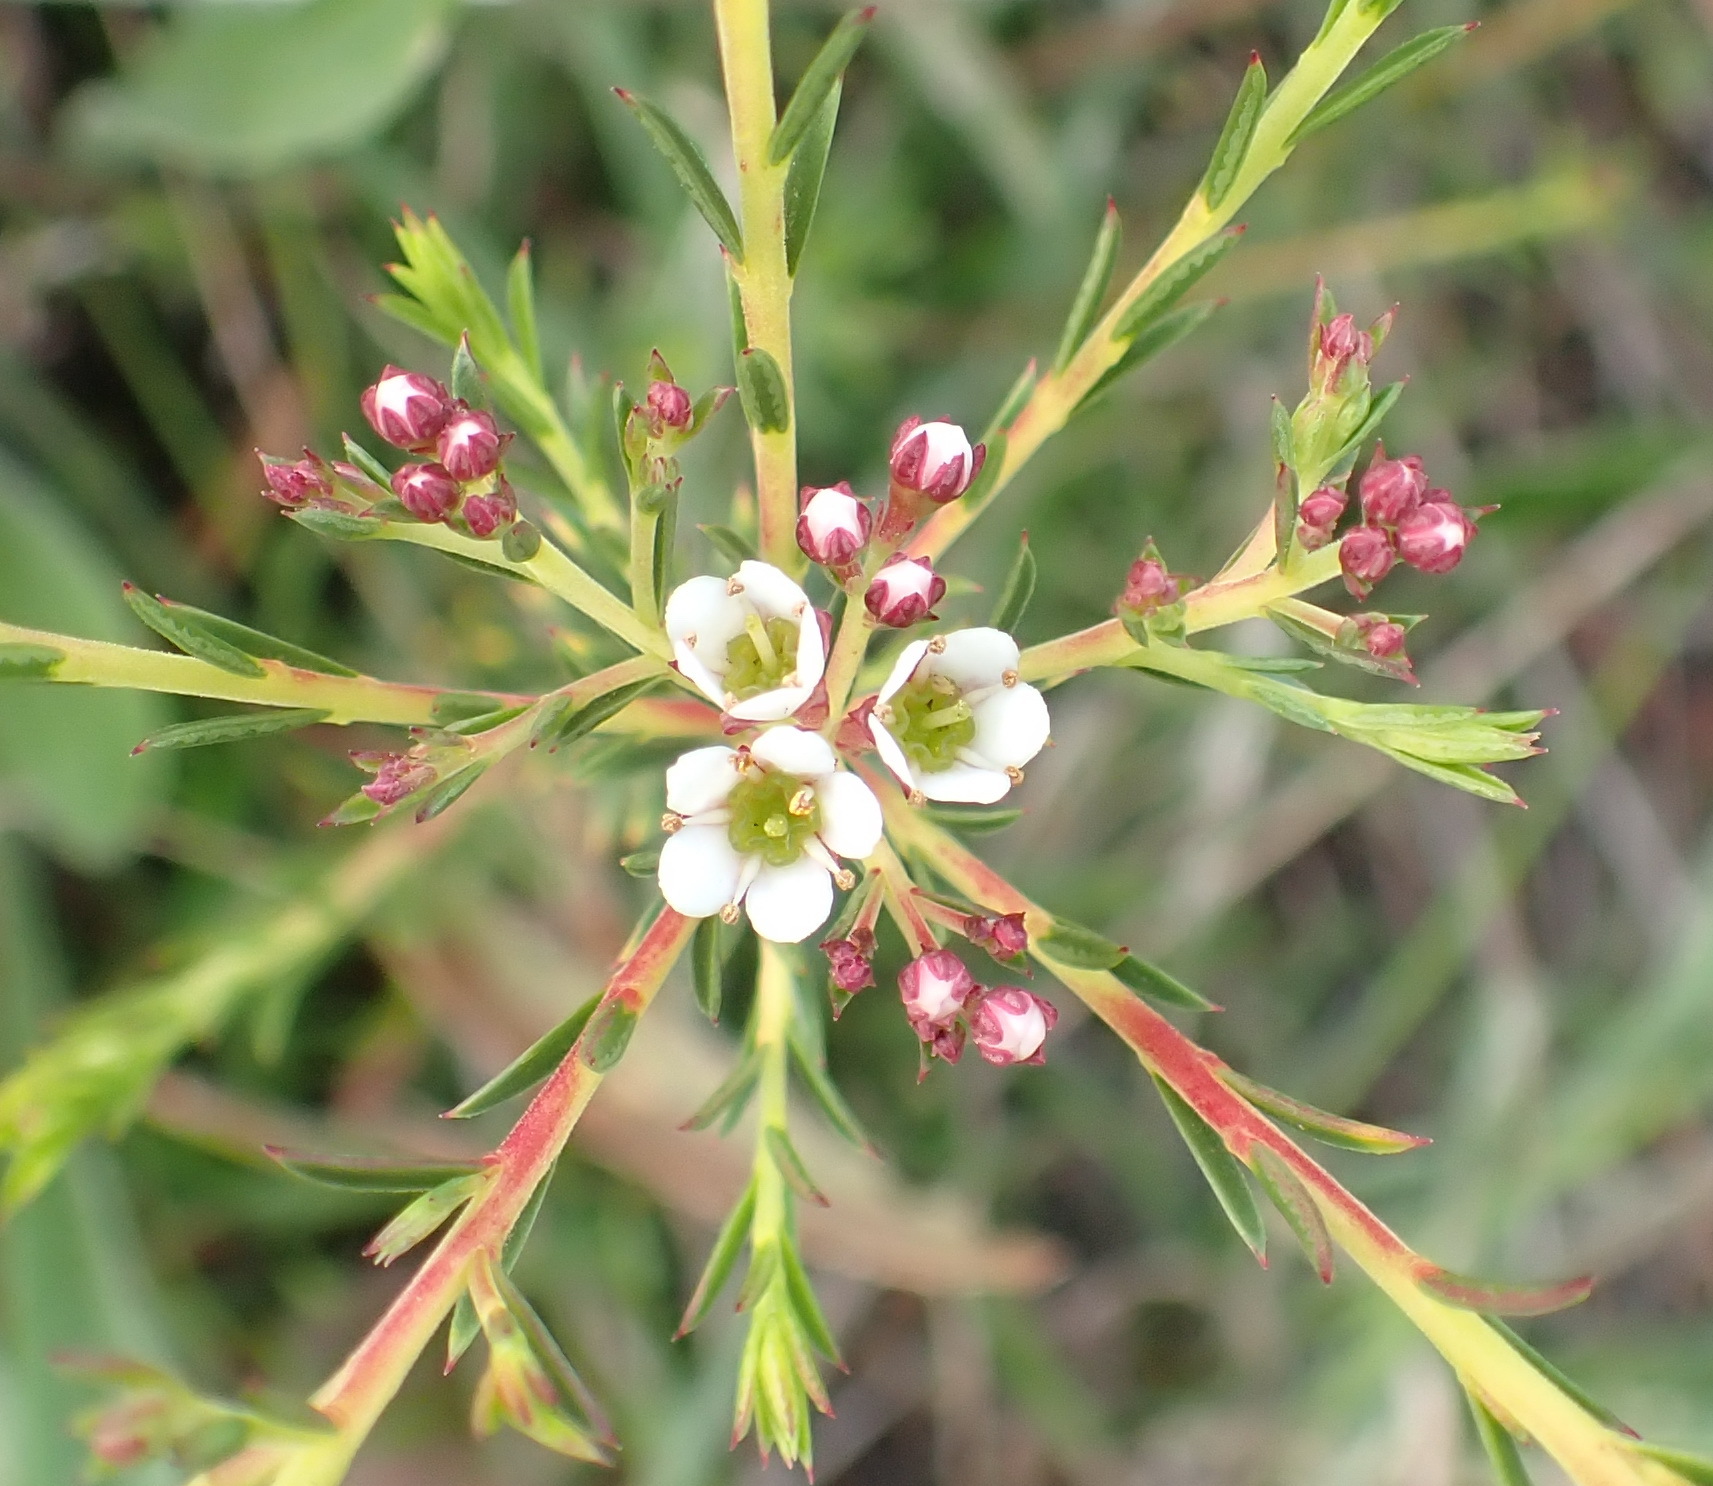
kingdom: Plantae
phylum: Tracheophyta
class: Magnoliopsida
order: Sapindales
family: Rutaceae
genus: Diosma
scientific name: Diosma hirsuta
